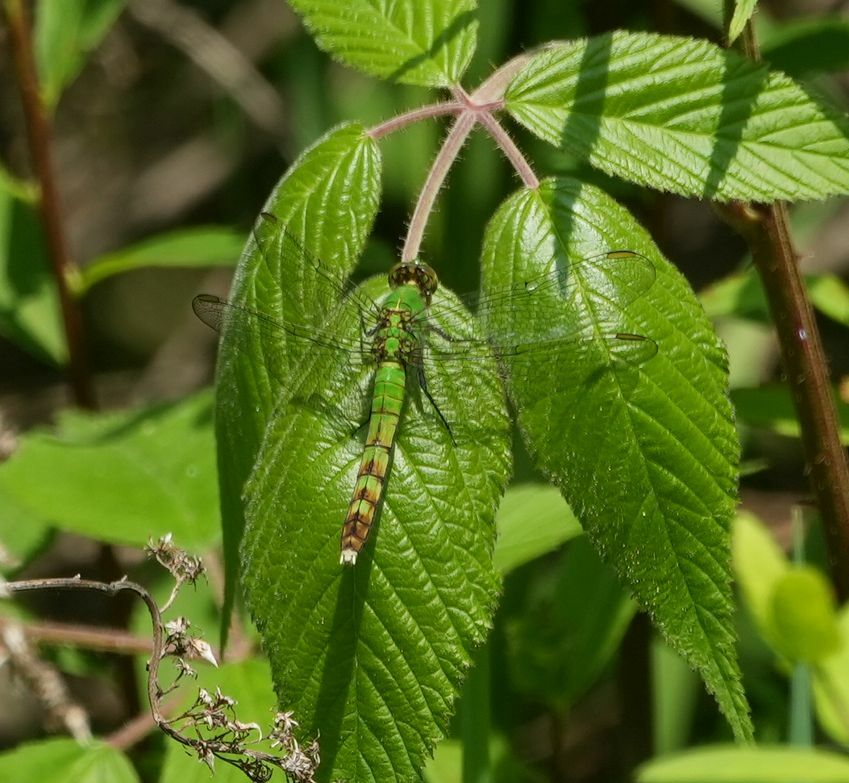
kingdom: Animalia
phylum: Arthropoda
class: Insecta
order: Odonata
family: Libellulidae
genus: Erythemis
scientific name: Erythemis simplicicollis
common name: Eastern pondhawk
